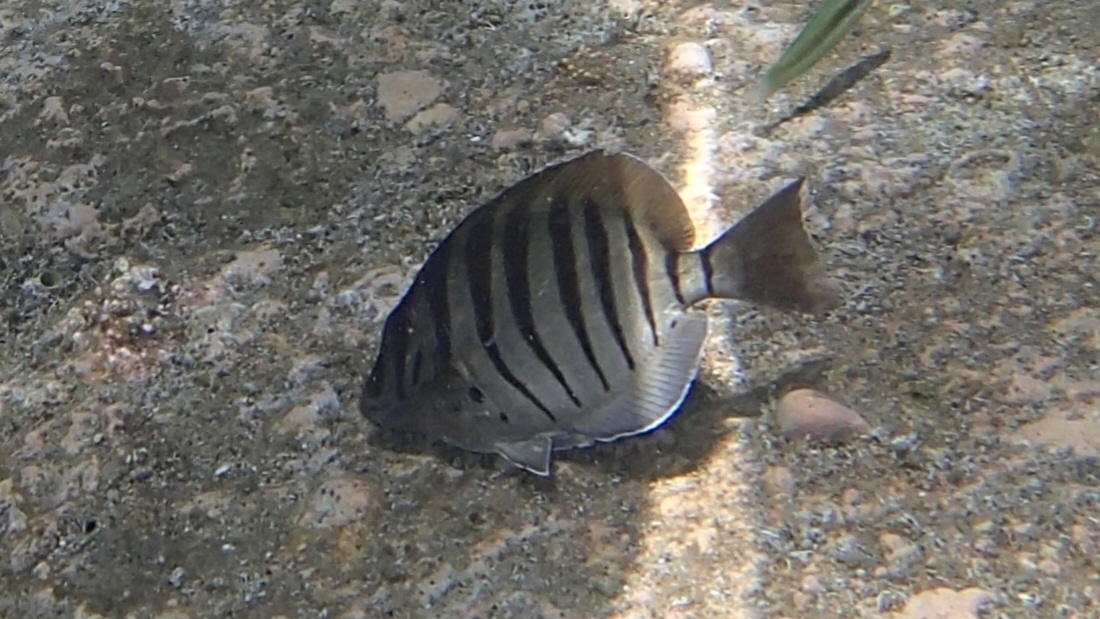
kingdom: Animalia
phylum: Chordata
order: Perciformes
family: Acanthuridae
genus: Acanthurus
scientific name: Acanthurus polyzona
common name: Black-barred surgeonfish
